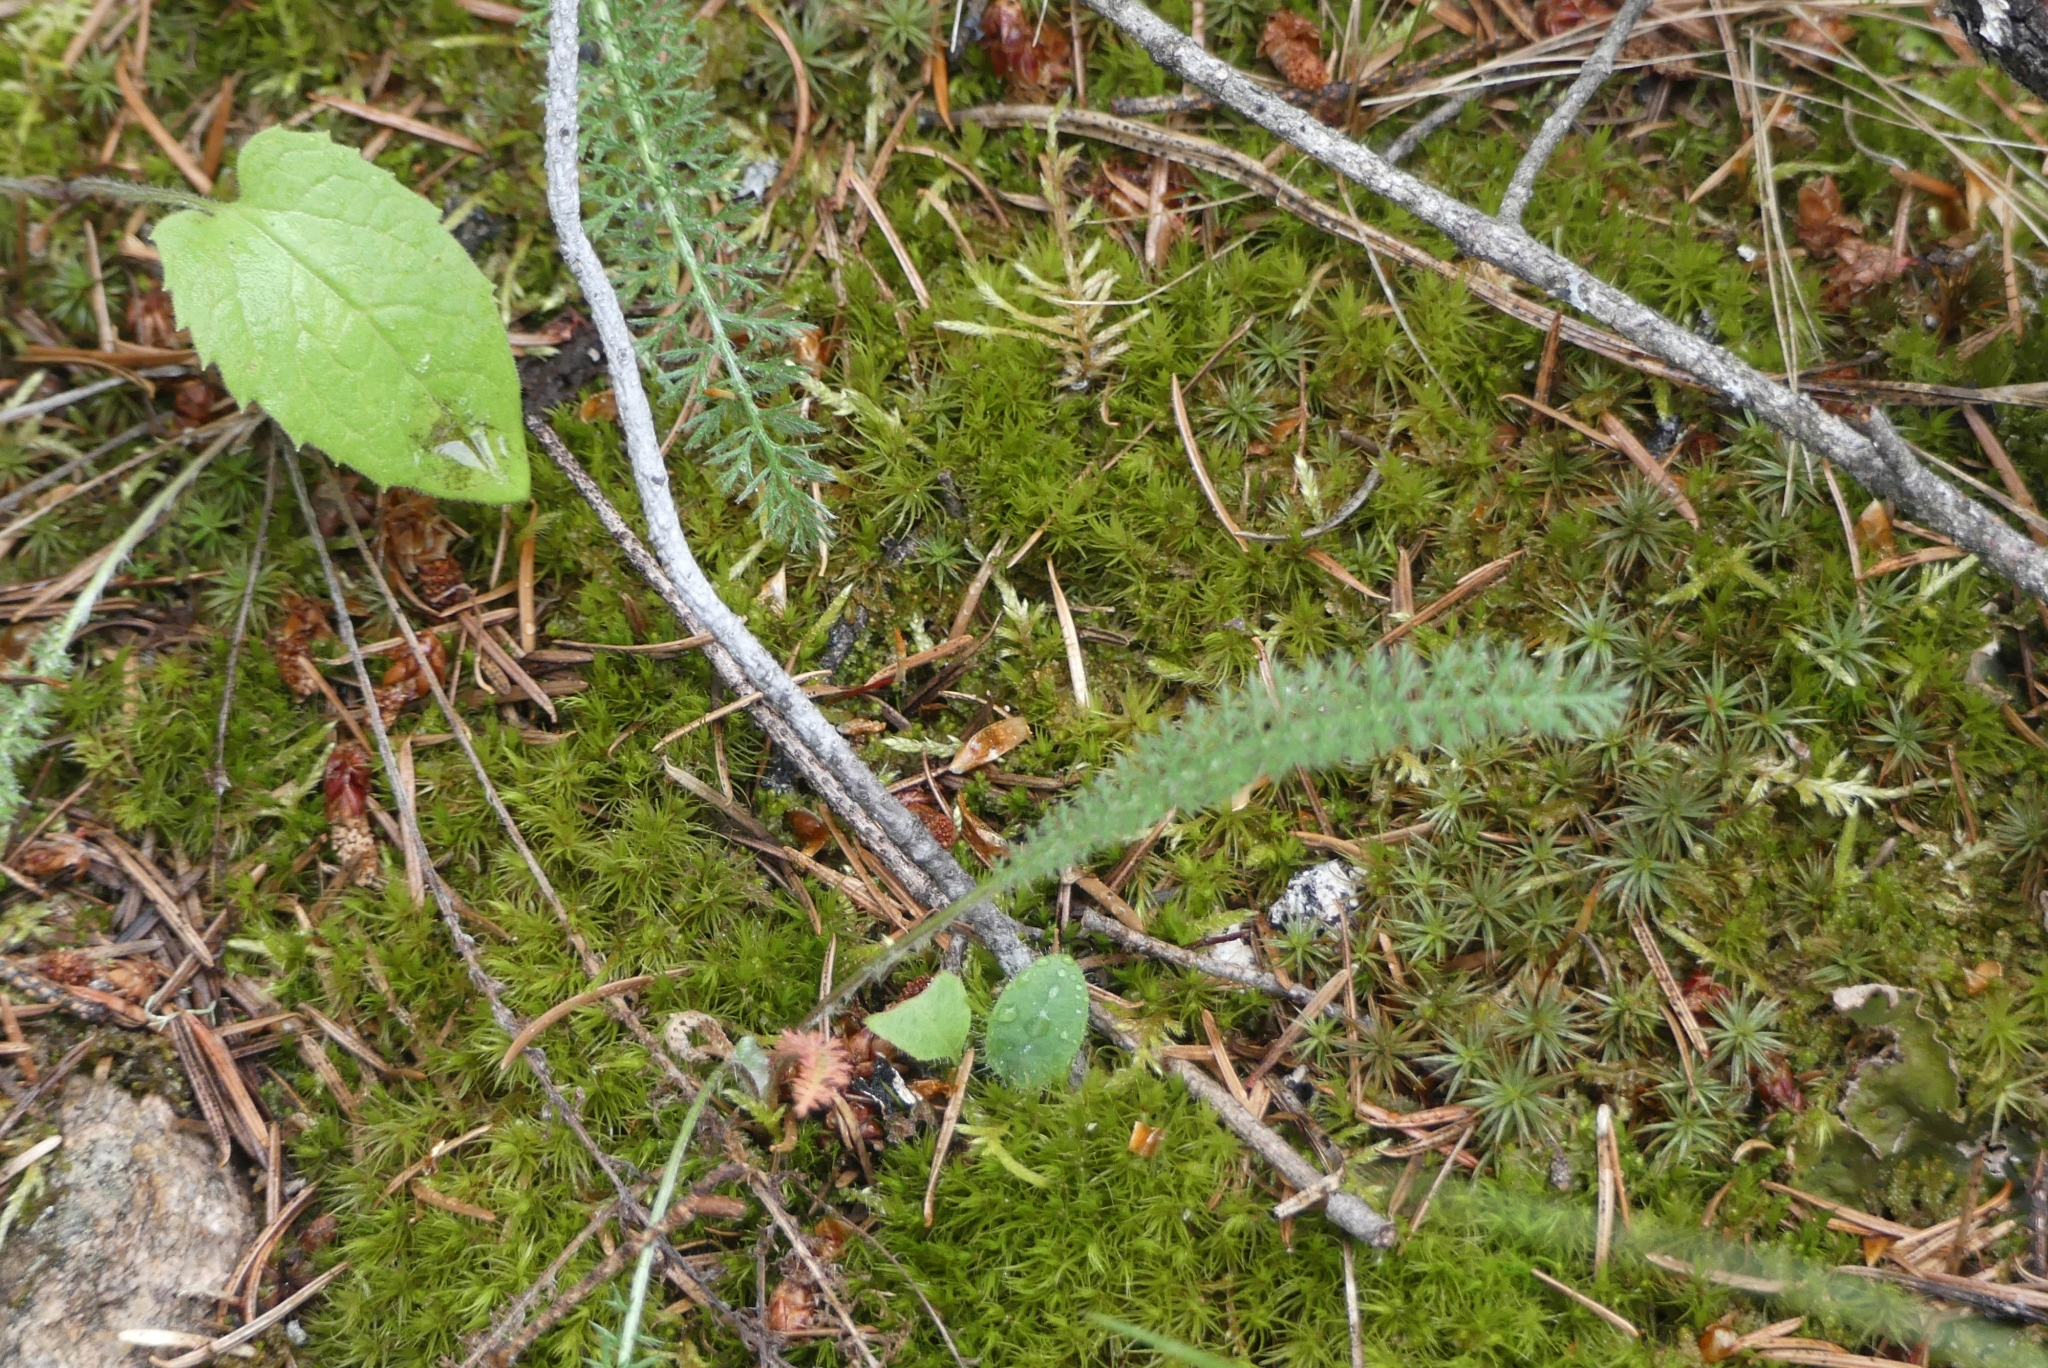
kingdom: Plantae
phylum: Tracheophyta
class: Magnoliopsida
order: Asterales
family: Asteraceae
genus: Achillea
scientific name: Achillea millefolium
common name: Yarrow
